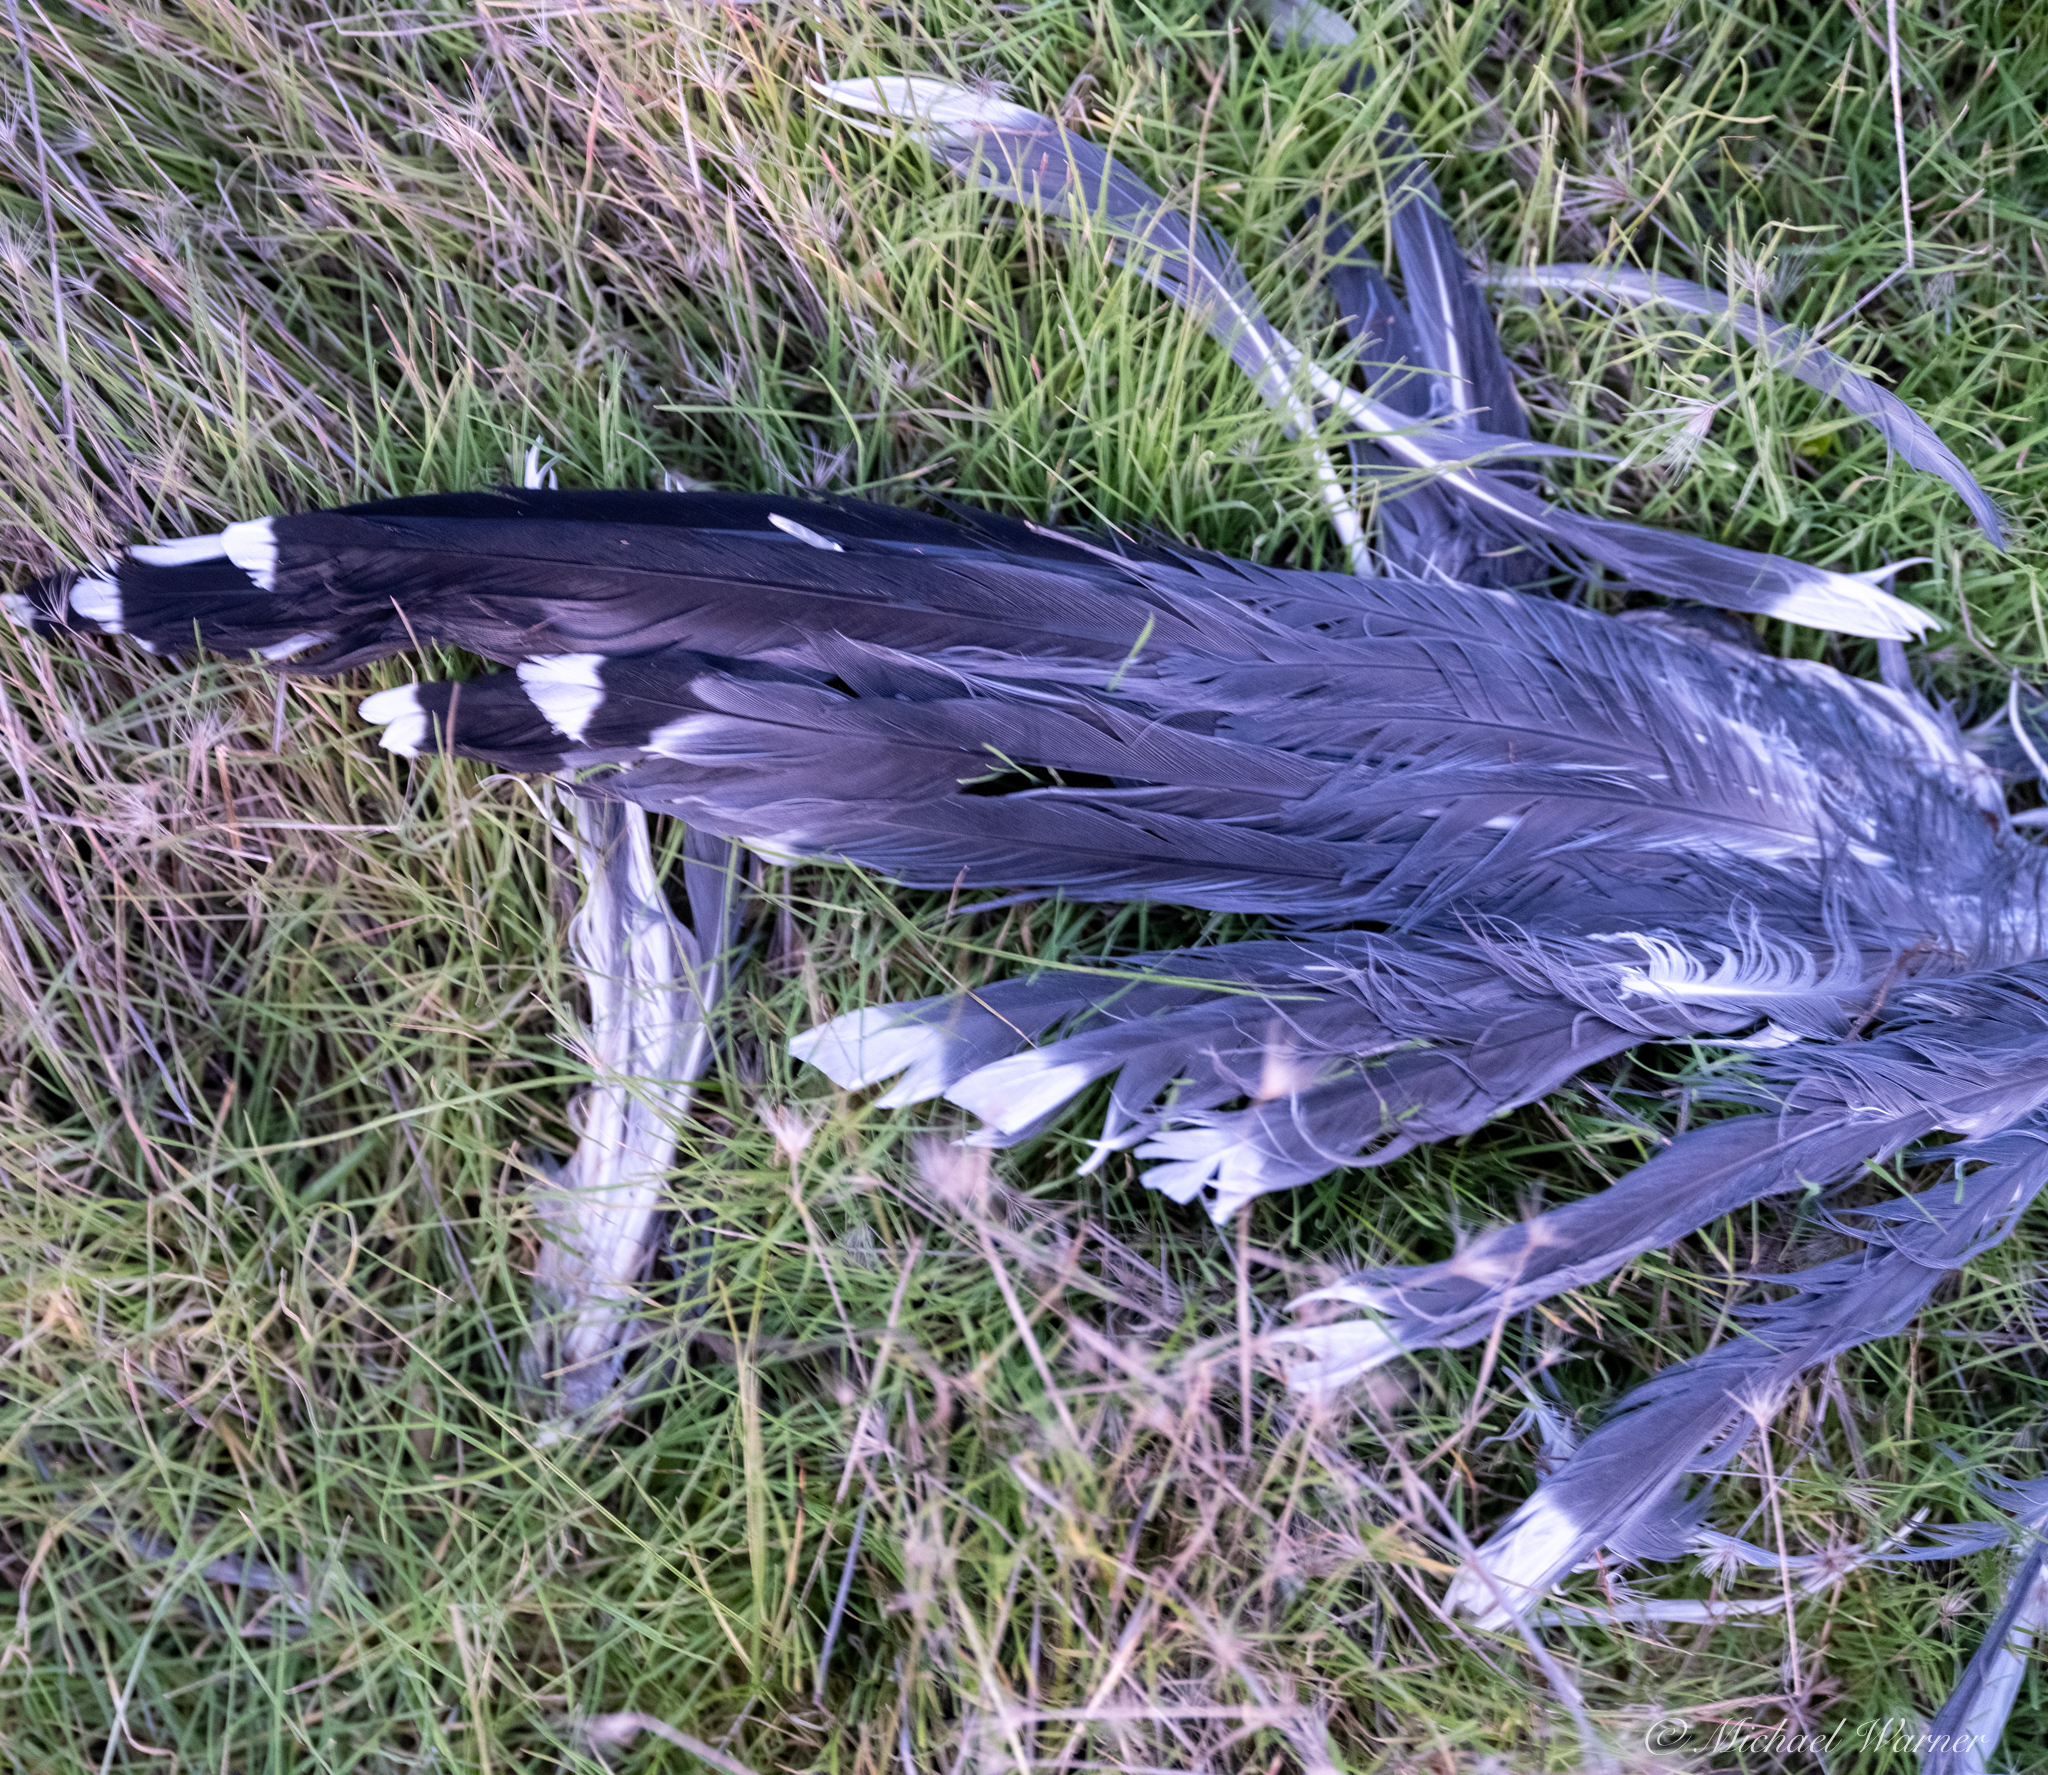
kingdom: Animalia
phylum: Chordata
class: Aves
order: Charadriiformes
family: Laridae
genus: Larus
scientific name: Larus argentatus
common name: Herring gull
